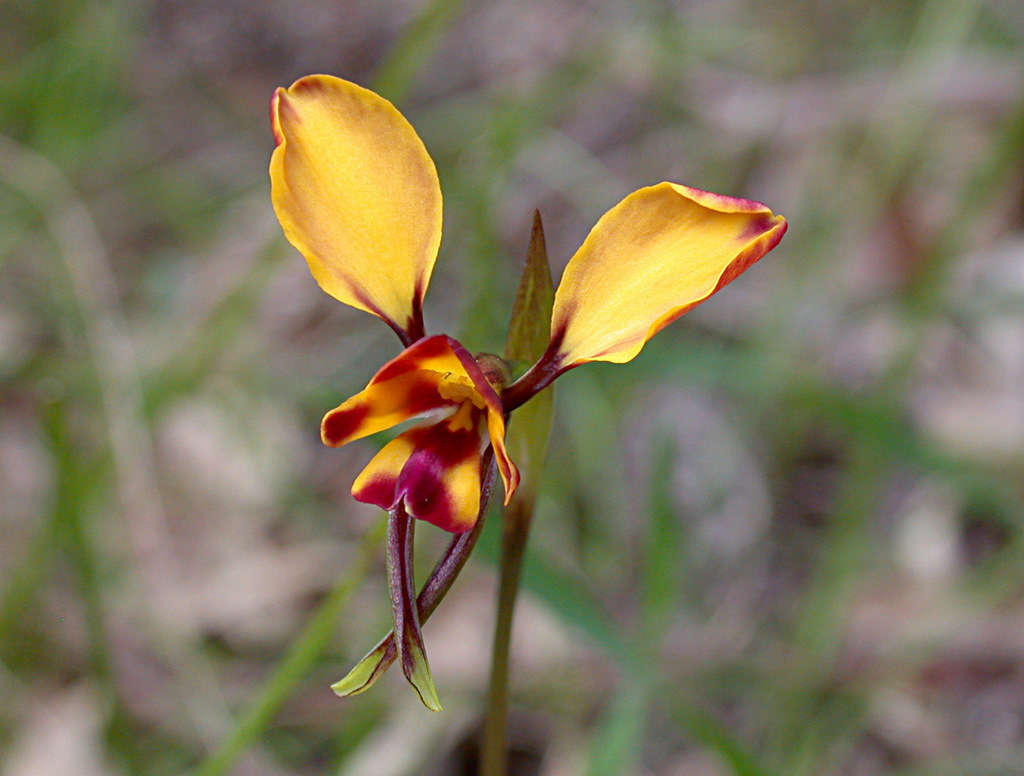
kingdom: Plantae
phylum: Tracheophyta
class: Liliopsida
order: Asparagales
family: Orchidaceae
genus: Diuris
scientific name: Diuris orientis
